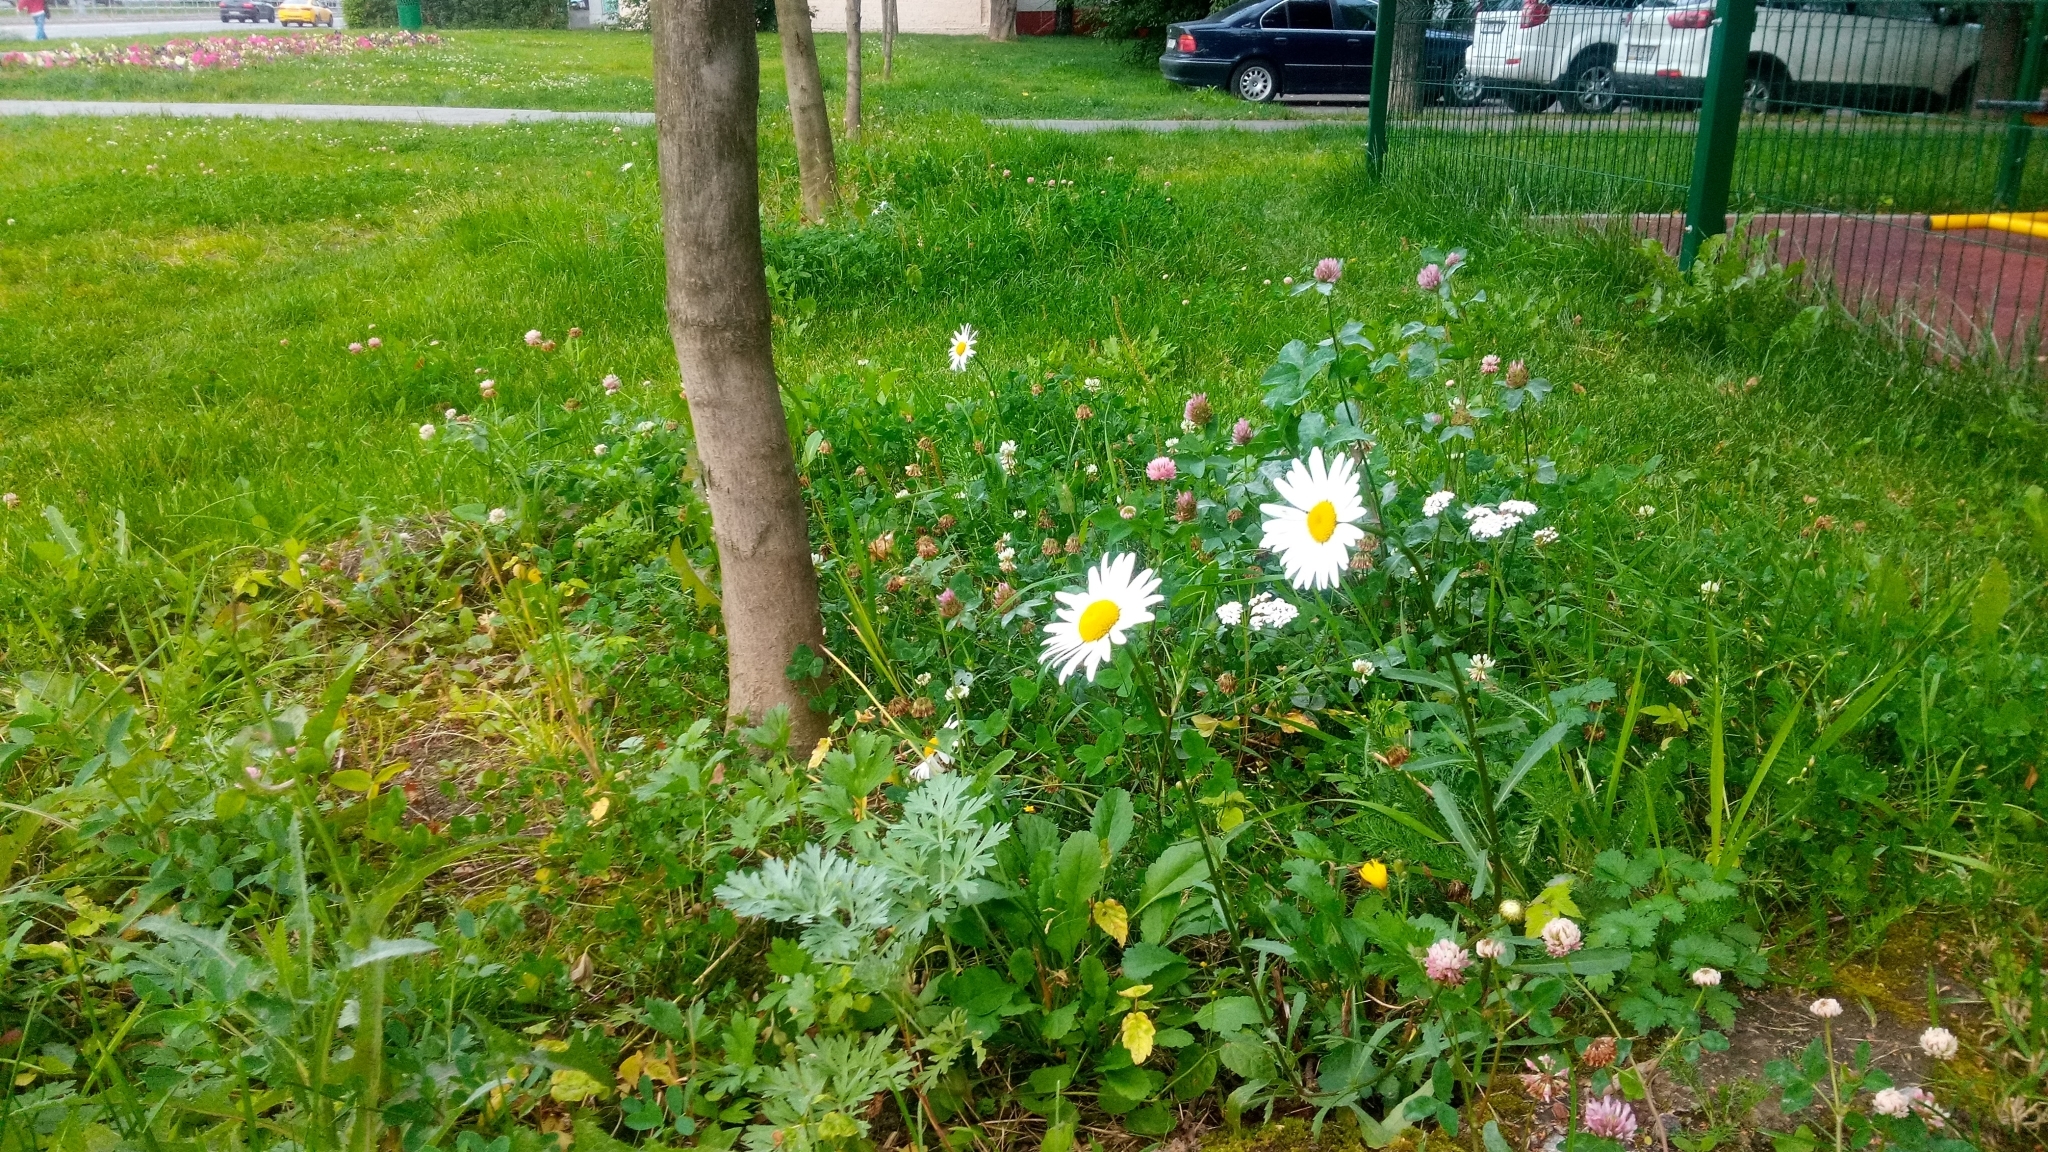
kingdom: Plantae
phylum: Tracheophyta
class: Magnoliopsida
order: Asterales
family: Asteraceae
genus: Leucanthemum
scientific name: Leucanthemum vulgare
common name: Oxeye daisy
